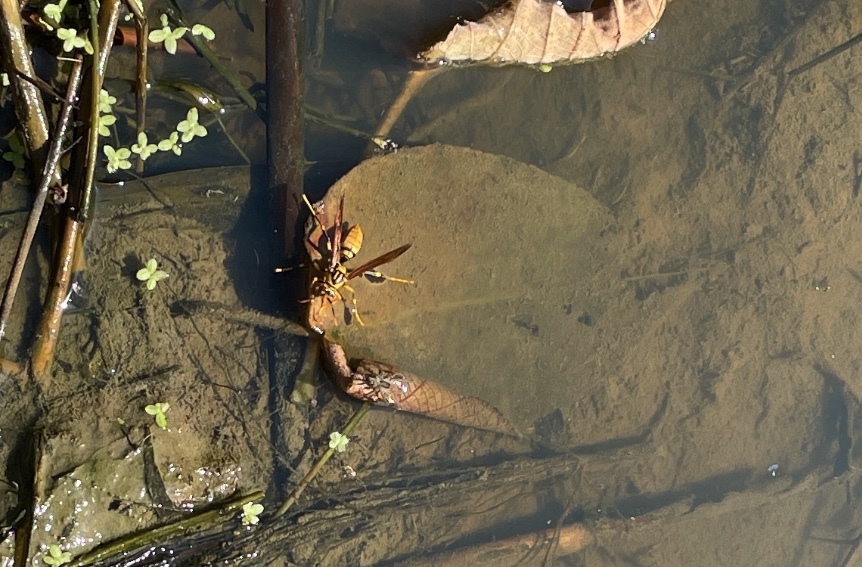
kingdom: Animalia
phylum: Arthropoda
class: Insecta
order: Hymenoptera
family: Eumenidae
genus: Polistes
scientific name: Polistes rothneyi
